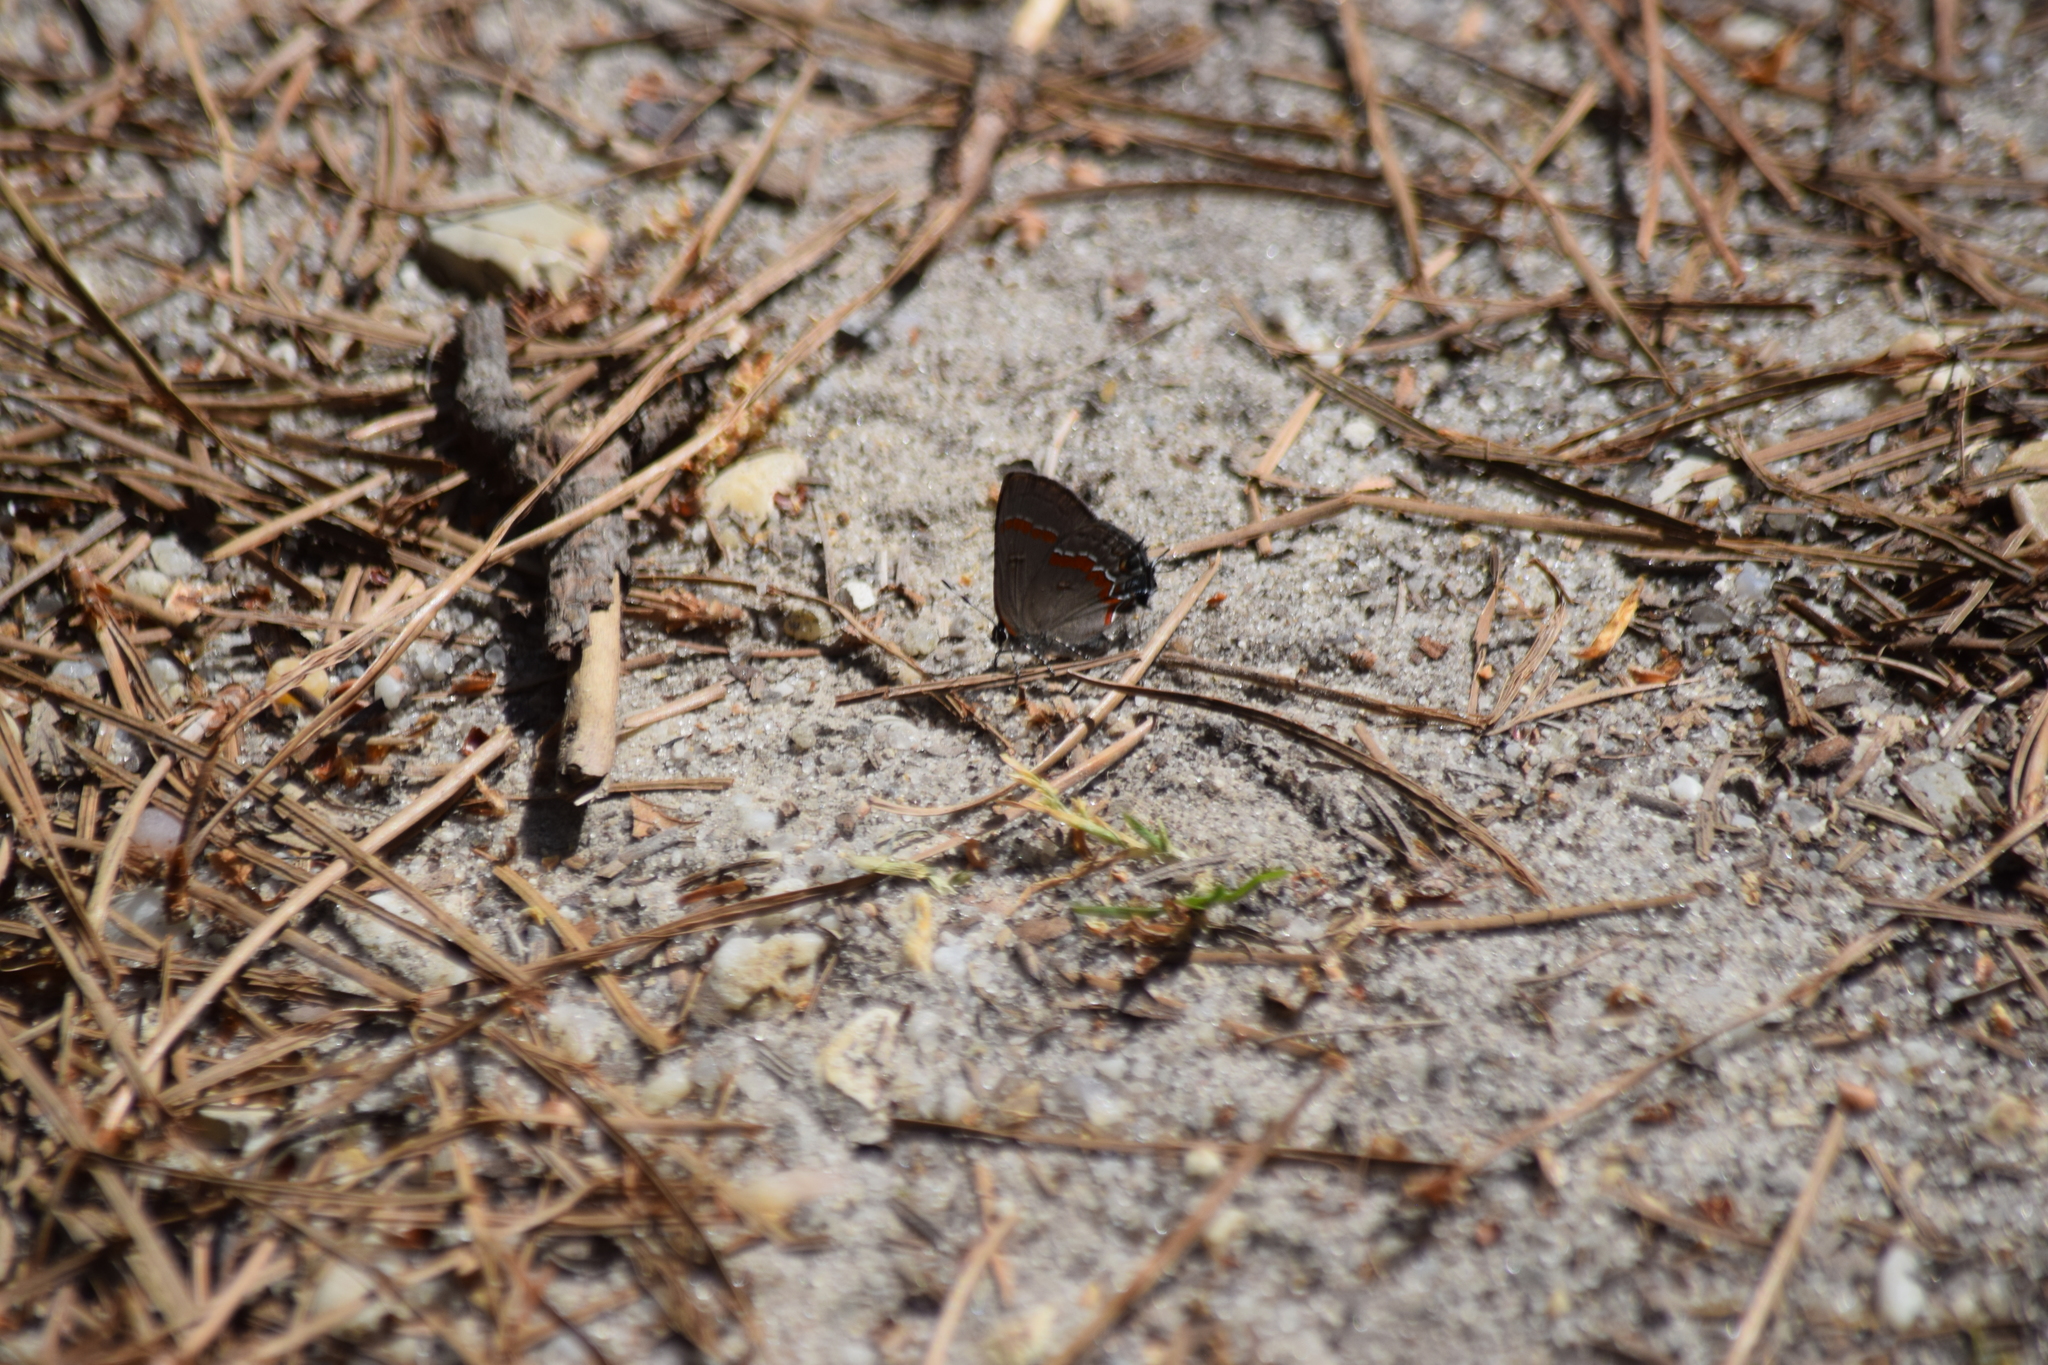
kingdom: Animalia
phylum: Arthropoda
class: Insecta
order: Lepidoptera
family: Lycaenidae
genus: Calycopis
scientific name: Calycopis cecrops
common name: Red-banded hairstreak
